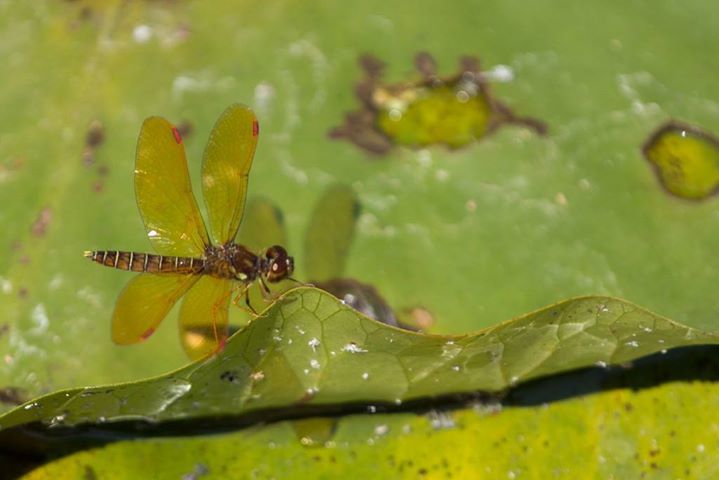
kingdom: Animalia
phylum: Arthropoda
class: Insecta
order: Odonata
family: Libellulidae
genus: Perithemis
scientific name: Perithemis tenera
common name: Eastern amberwing
